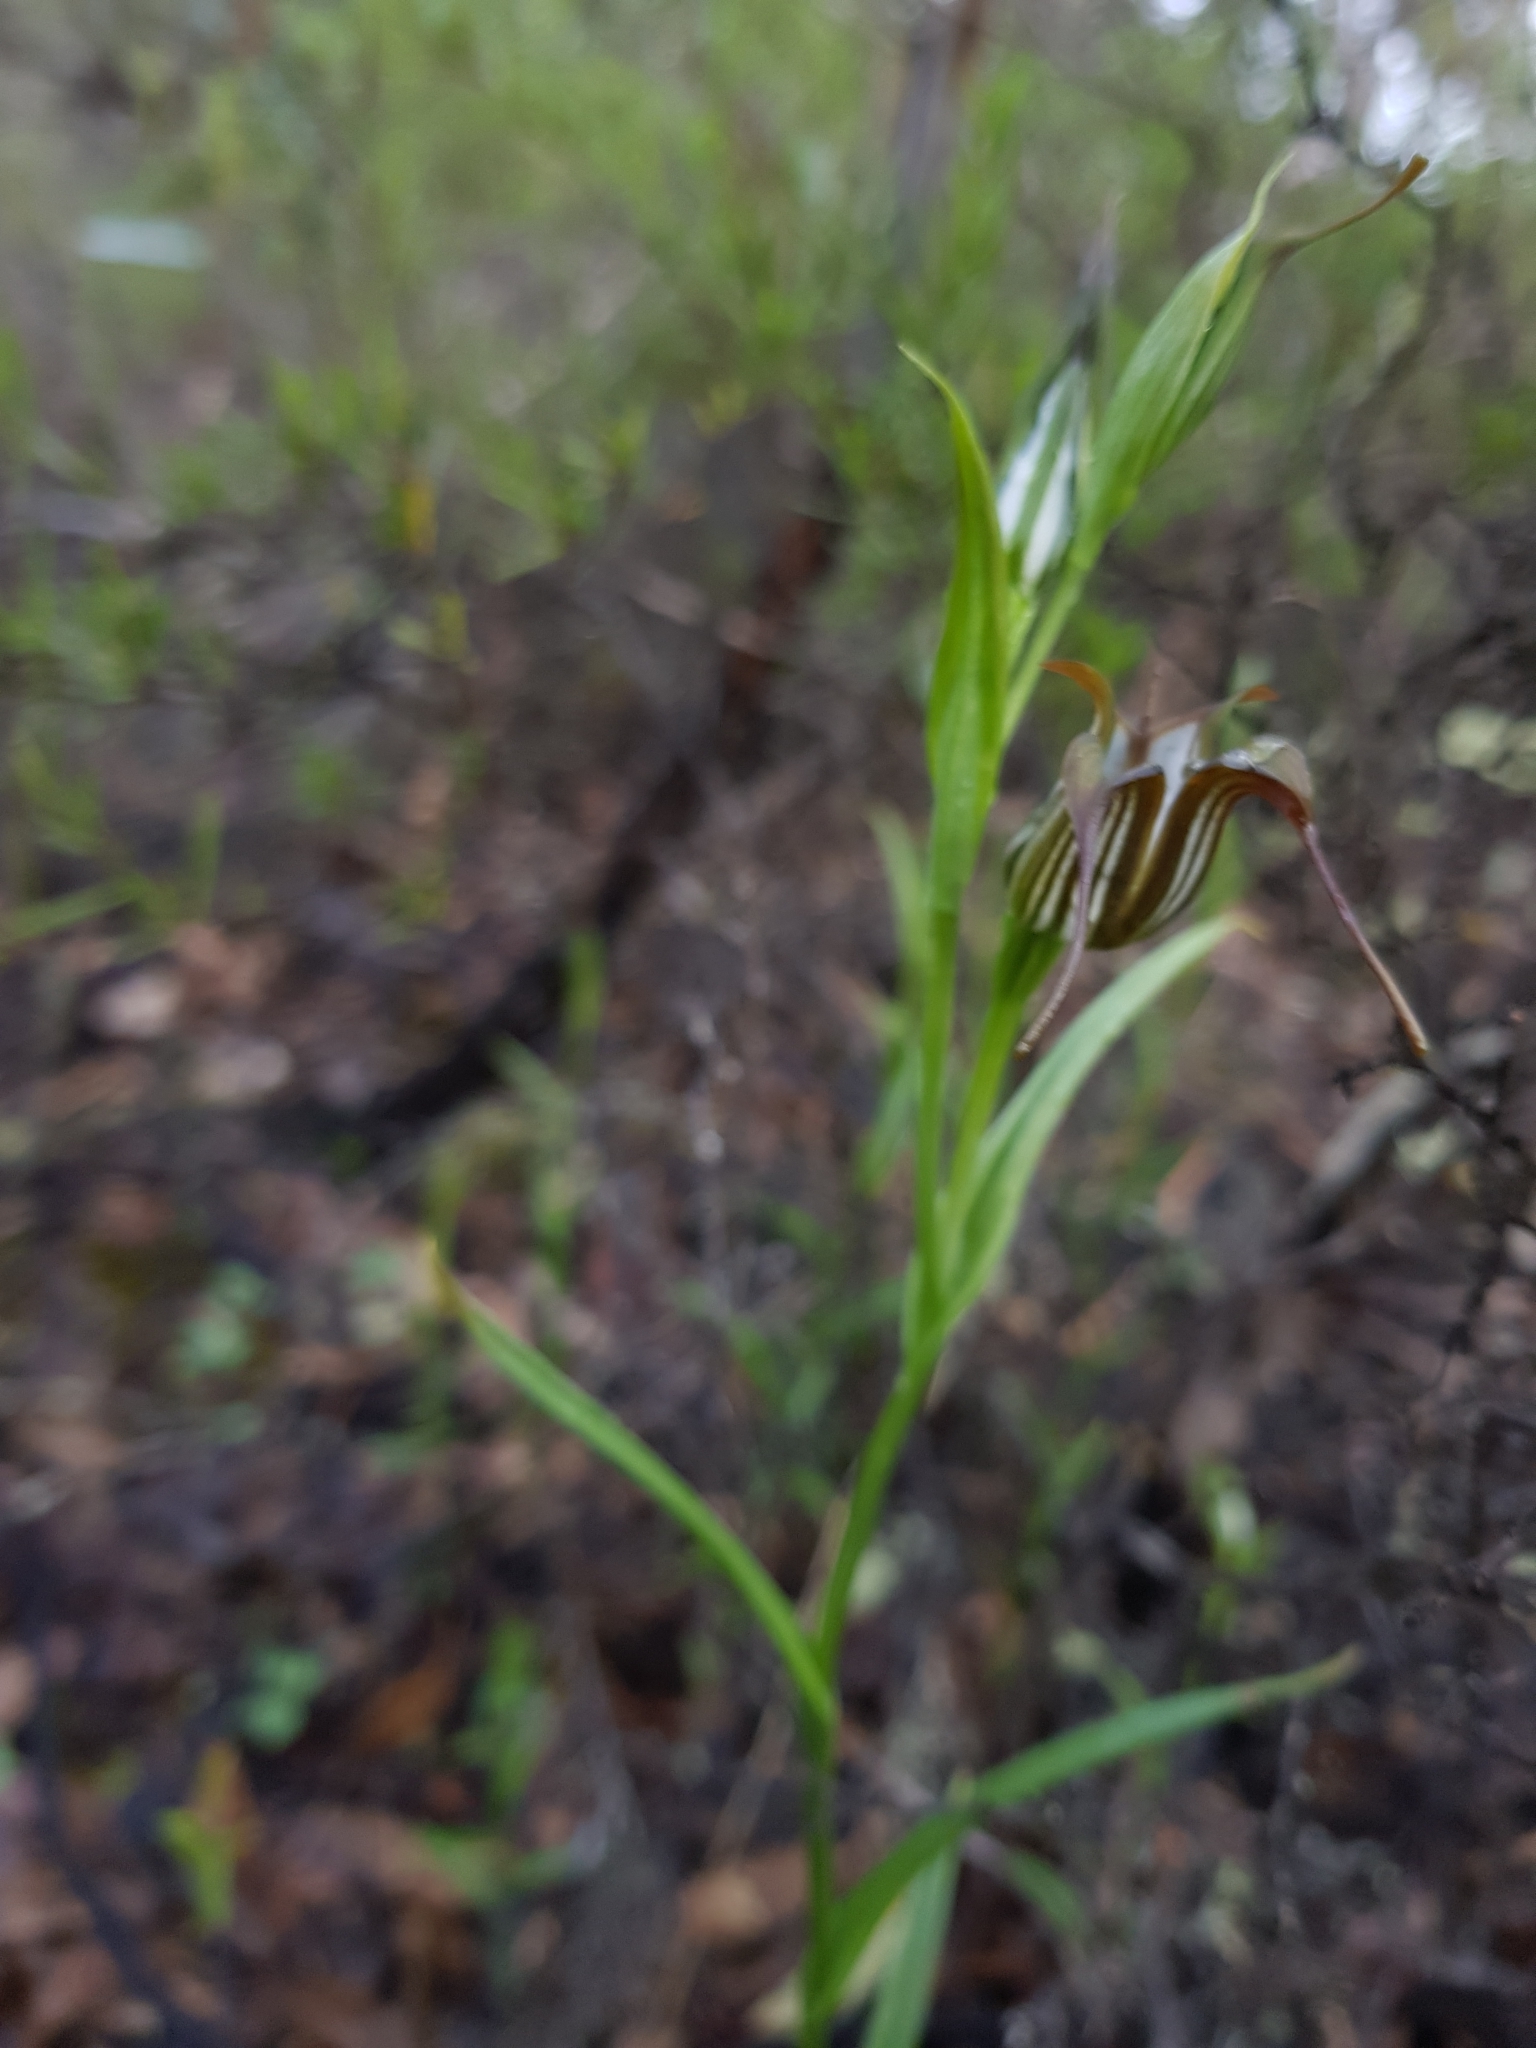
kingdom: Plantae
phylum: Tracheophyta
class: Liliopsida
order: Asparagales
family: Orchidaceae
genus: Pterostylis
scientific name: Pterostylis recurva
